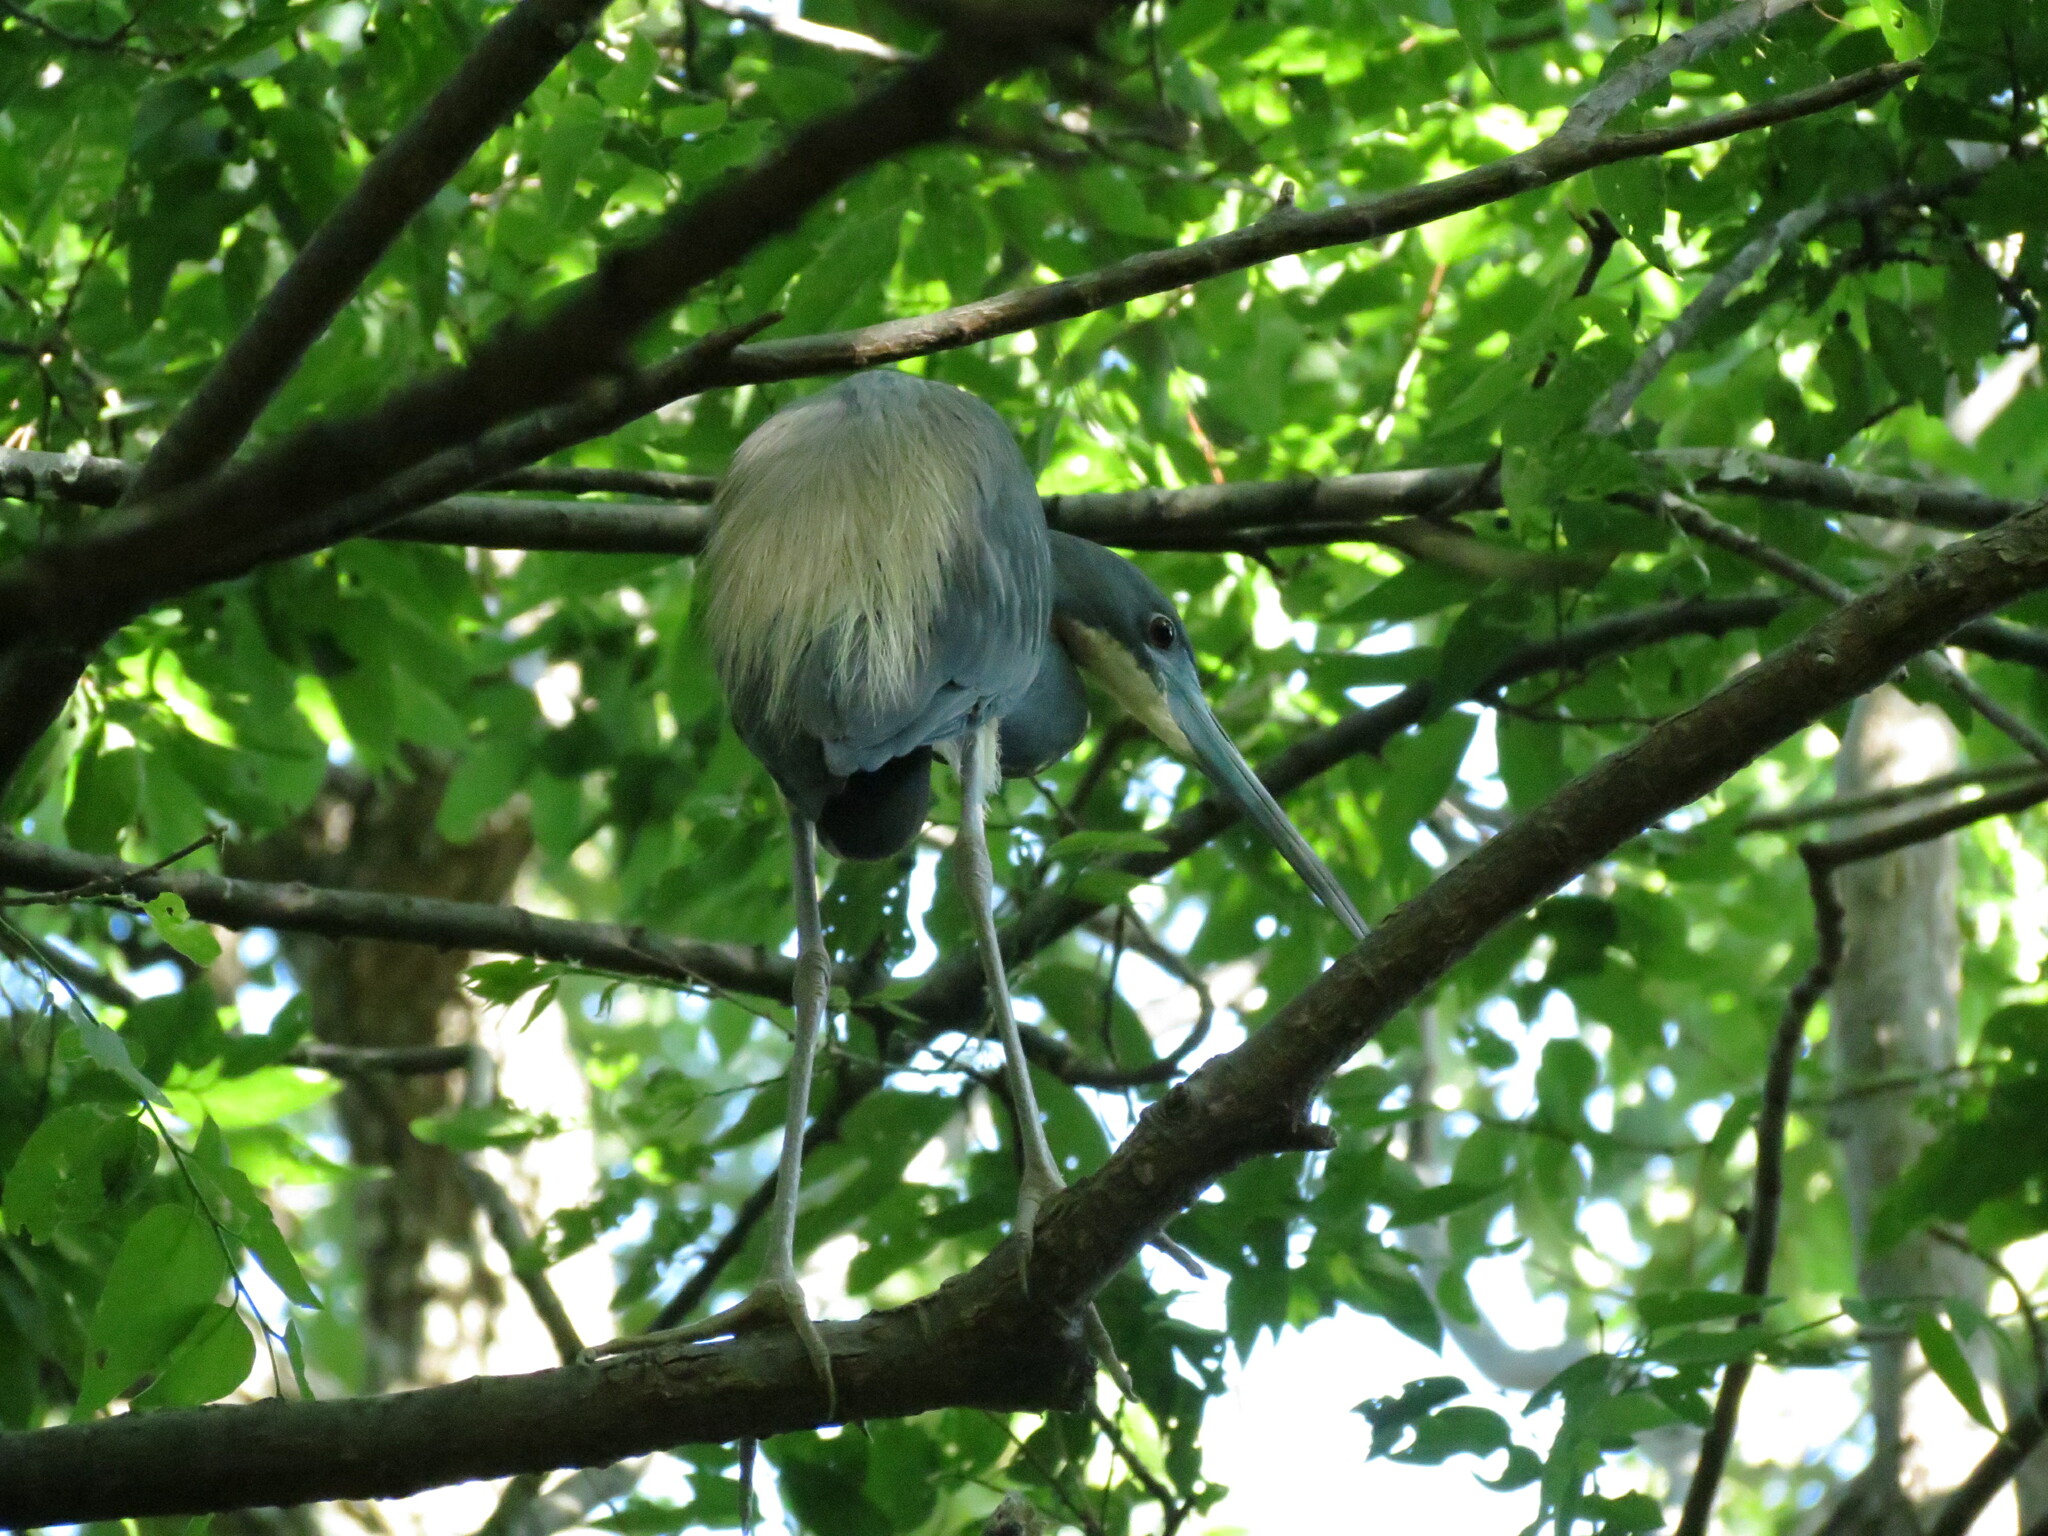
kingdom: Animalia
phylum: Chordata
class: Aves
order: Pelecaniformes
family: Ardeidae
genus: Egretta
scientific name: Egretta tricolor
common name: Tricolored heron
